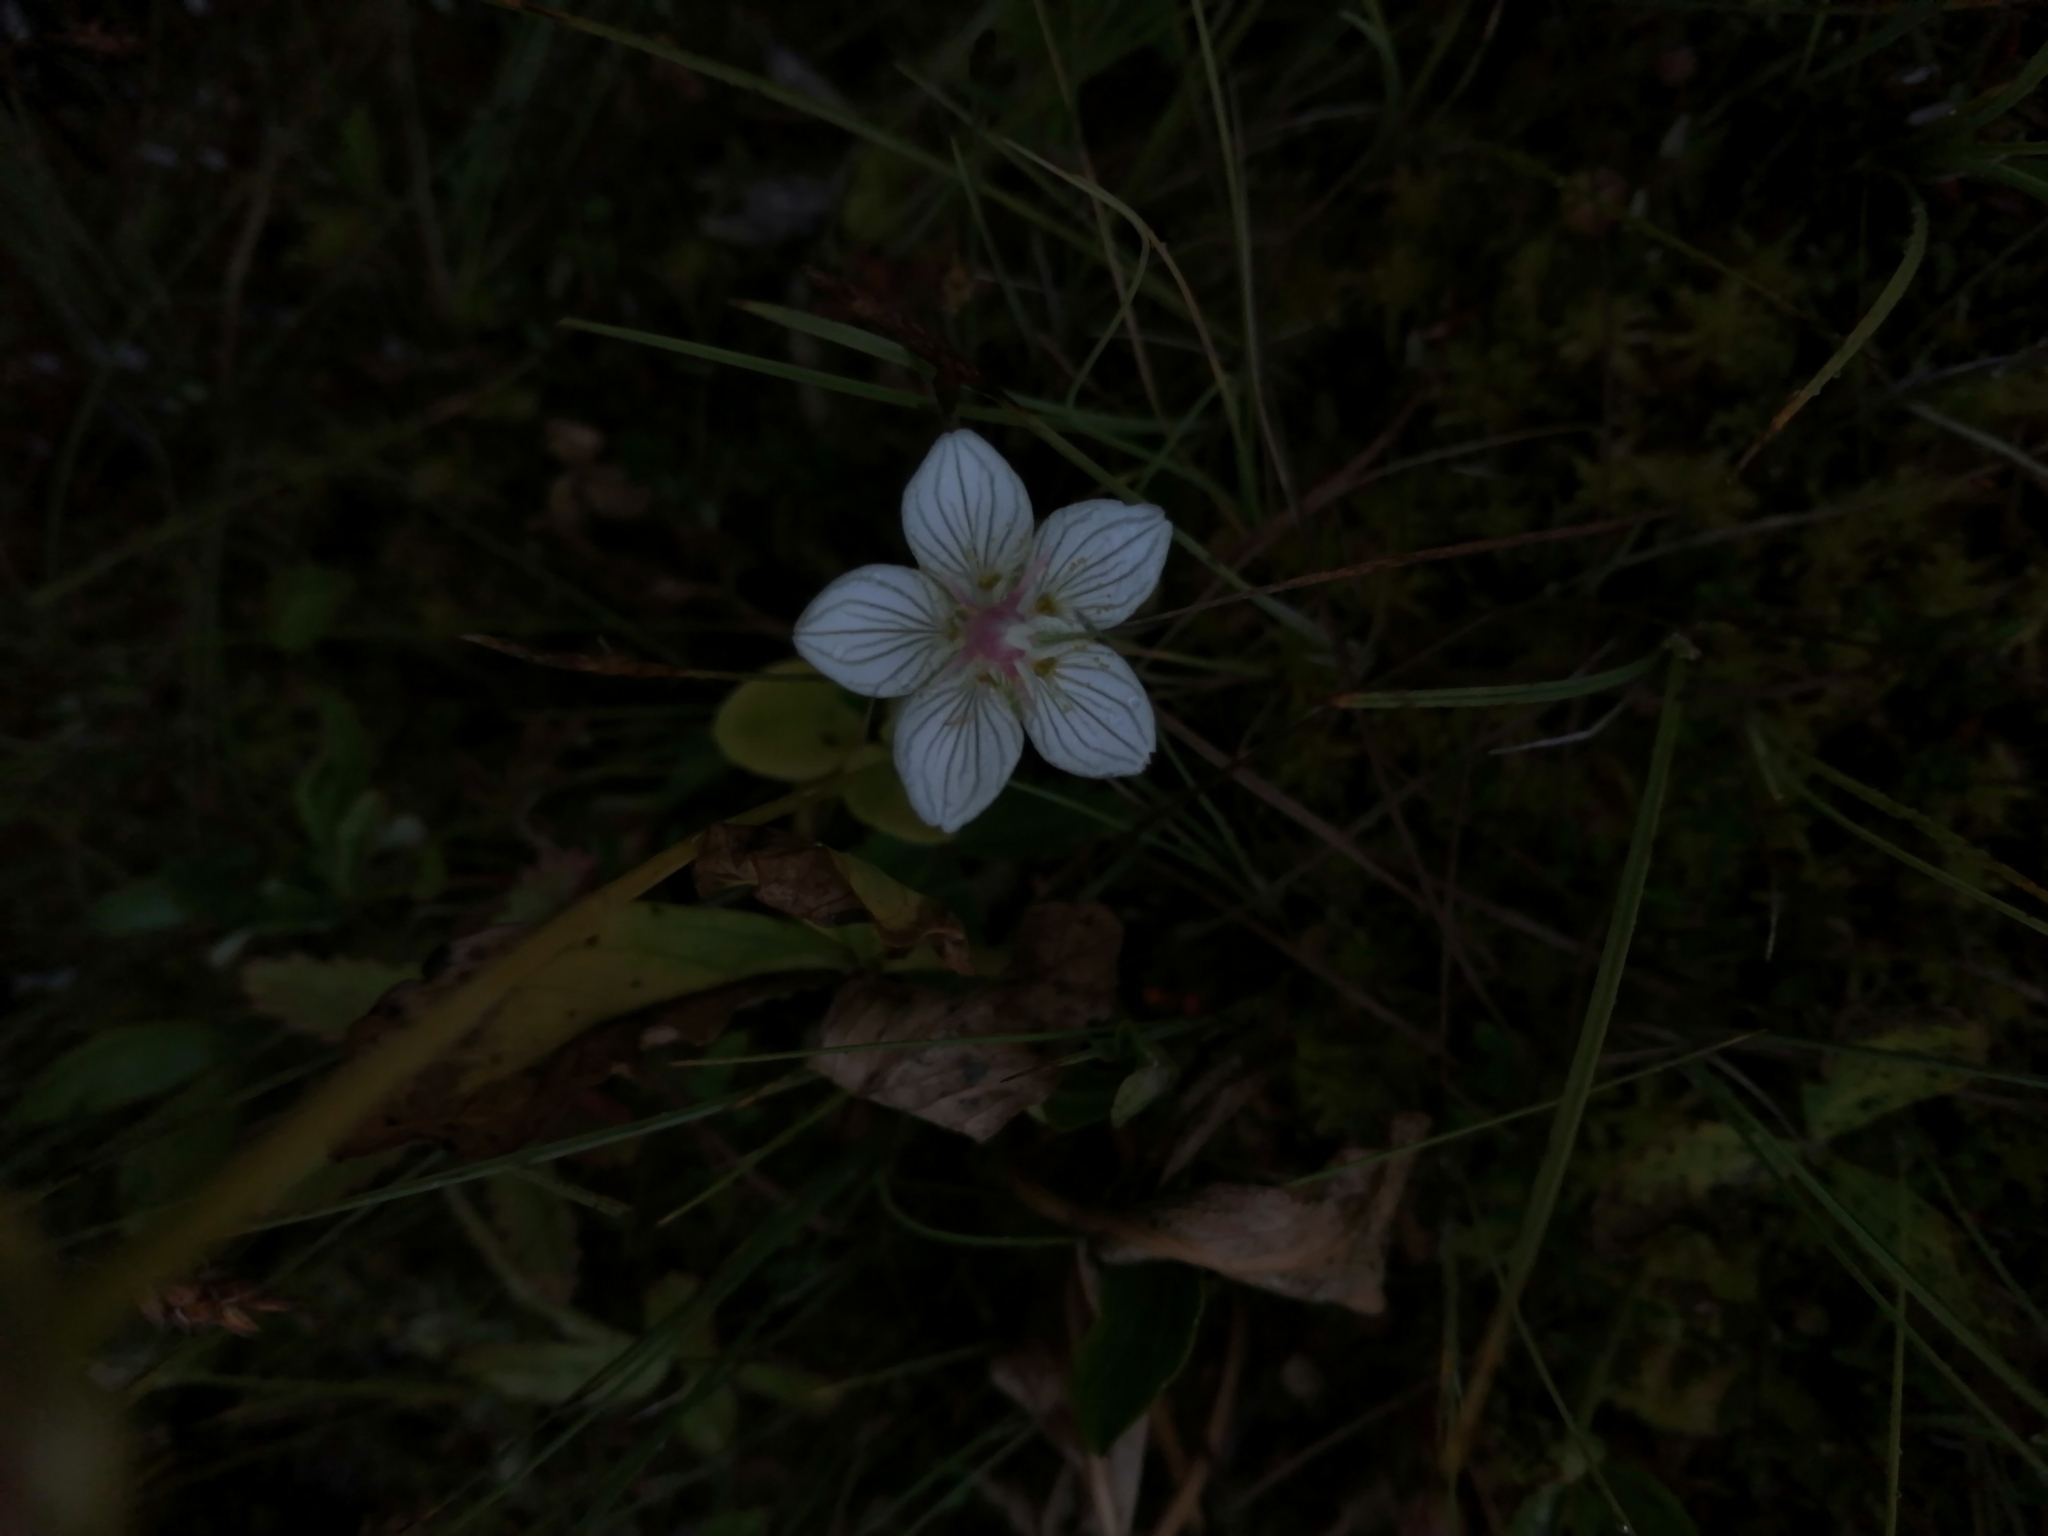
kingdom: Plantae
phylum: Tracheophyta
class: Magnoliopsida
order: Celastrales
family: Parnassiaceae
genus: Parnassia
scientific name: Parnassia palustris
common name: Grass-of-parnassus
